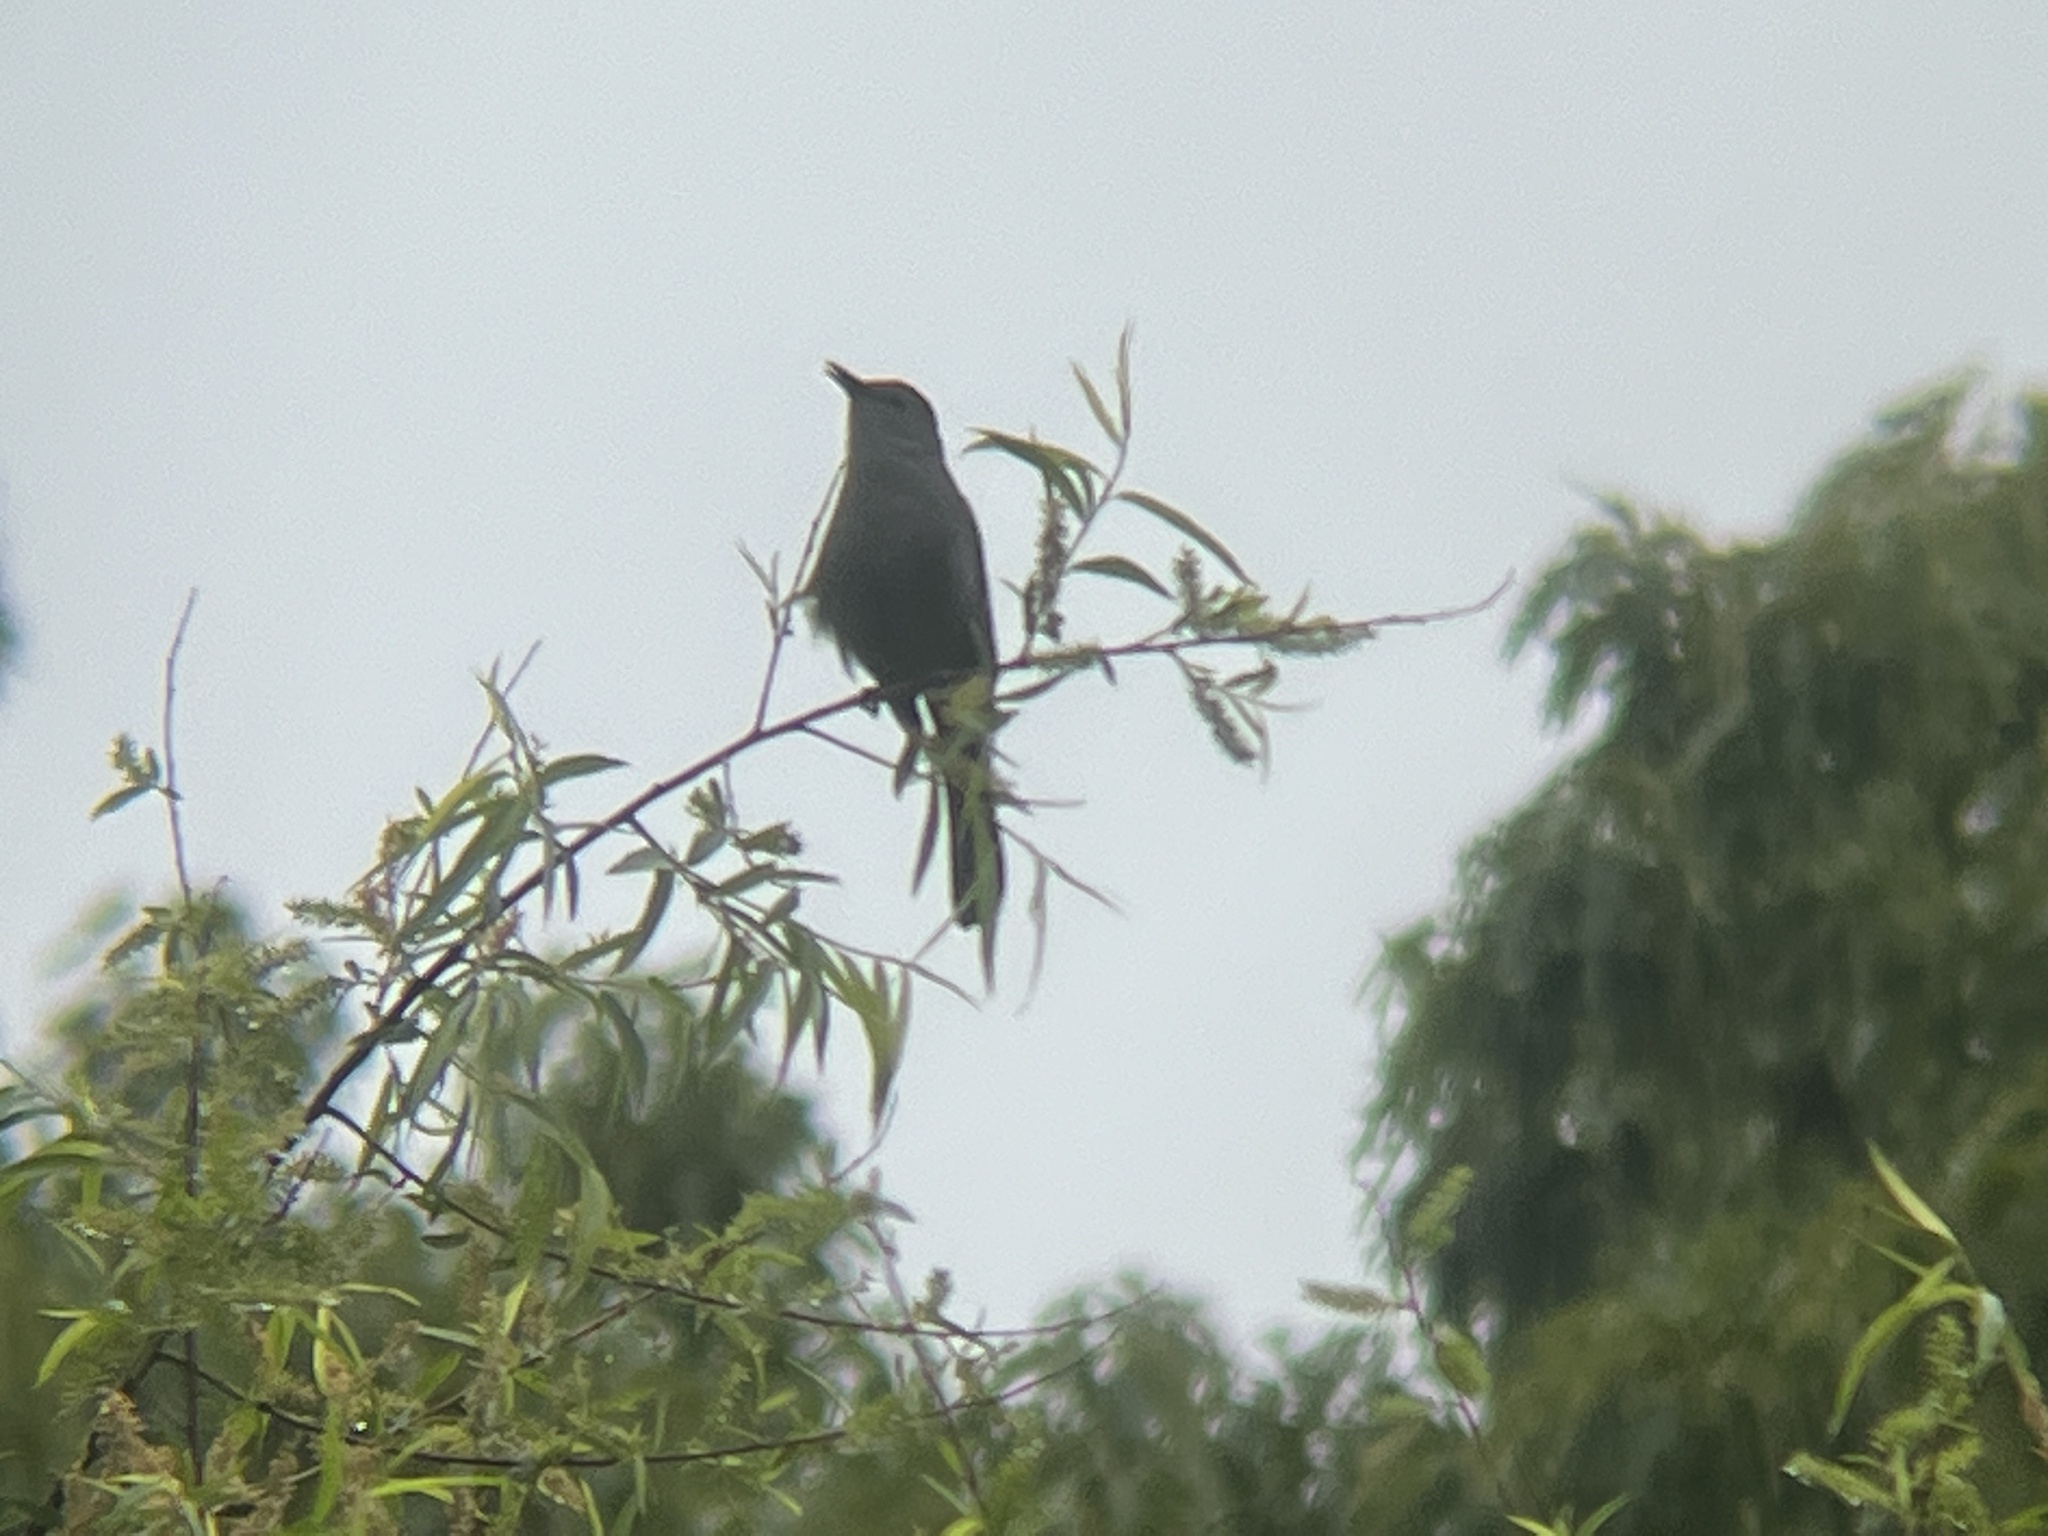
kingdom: Animalia
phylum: Chordata
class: Aves
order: Passeriformes
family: Mimidae
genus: Dumetella
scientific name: Dumetella carolinensis
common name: Gray catbird
